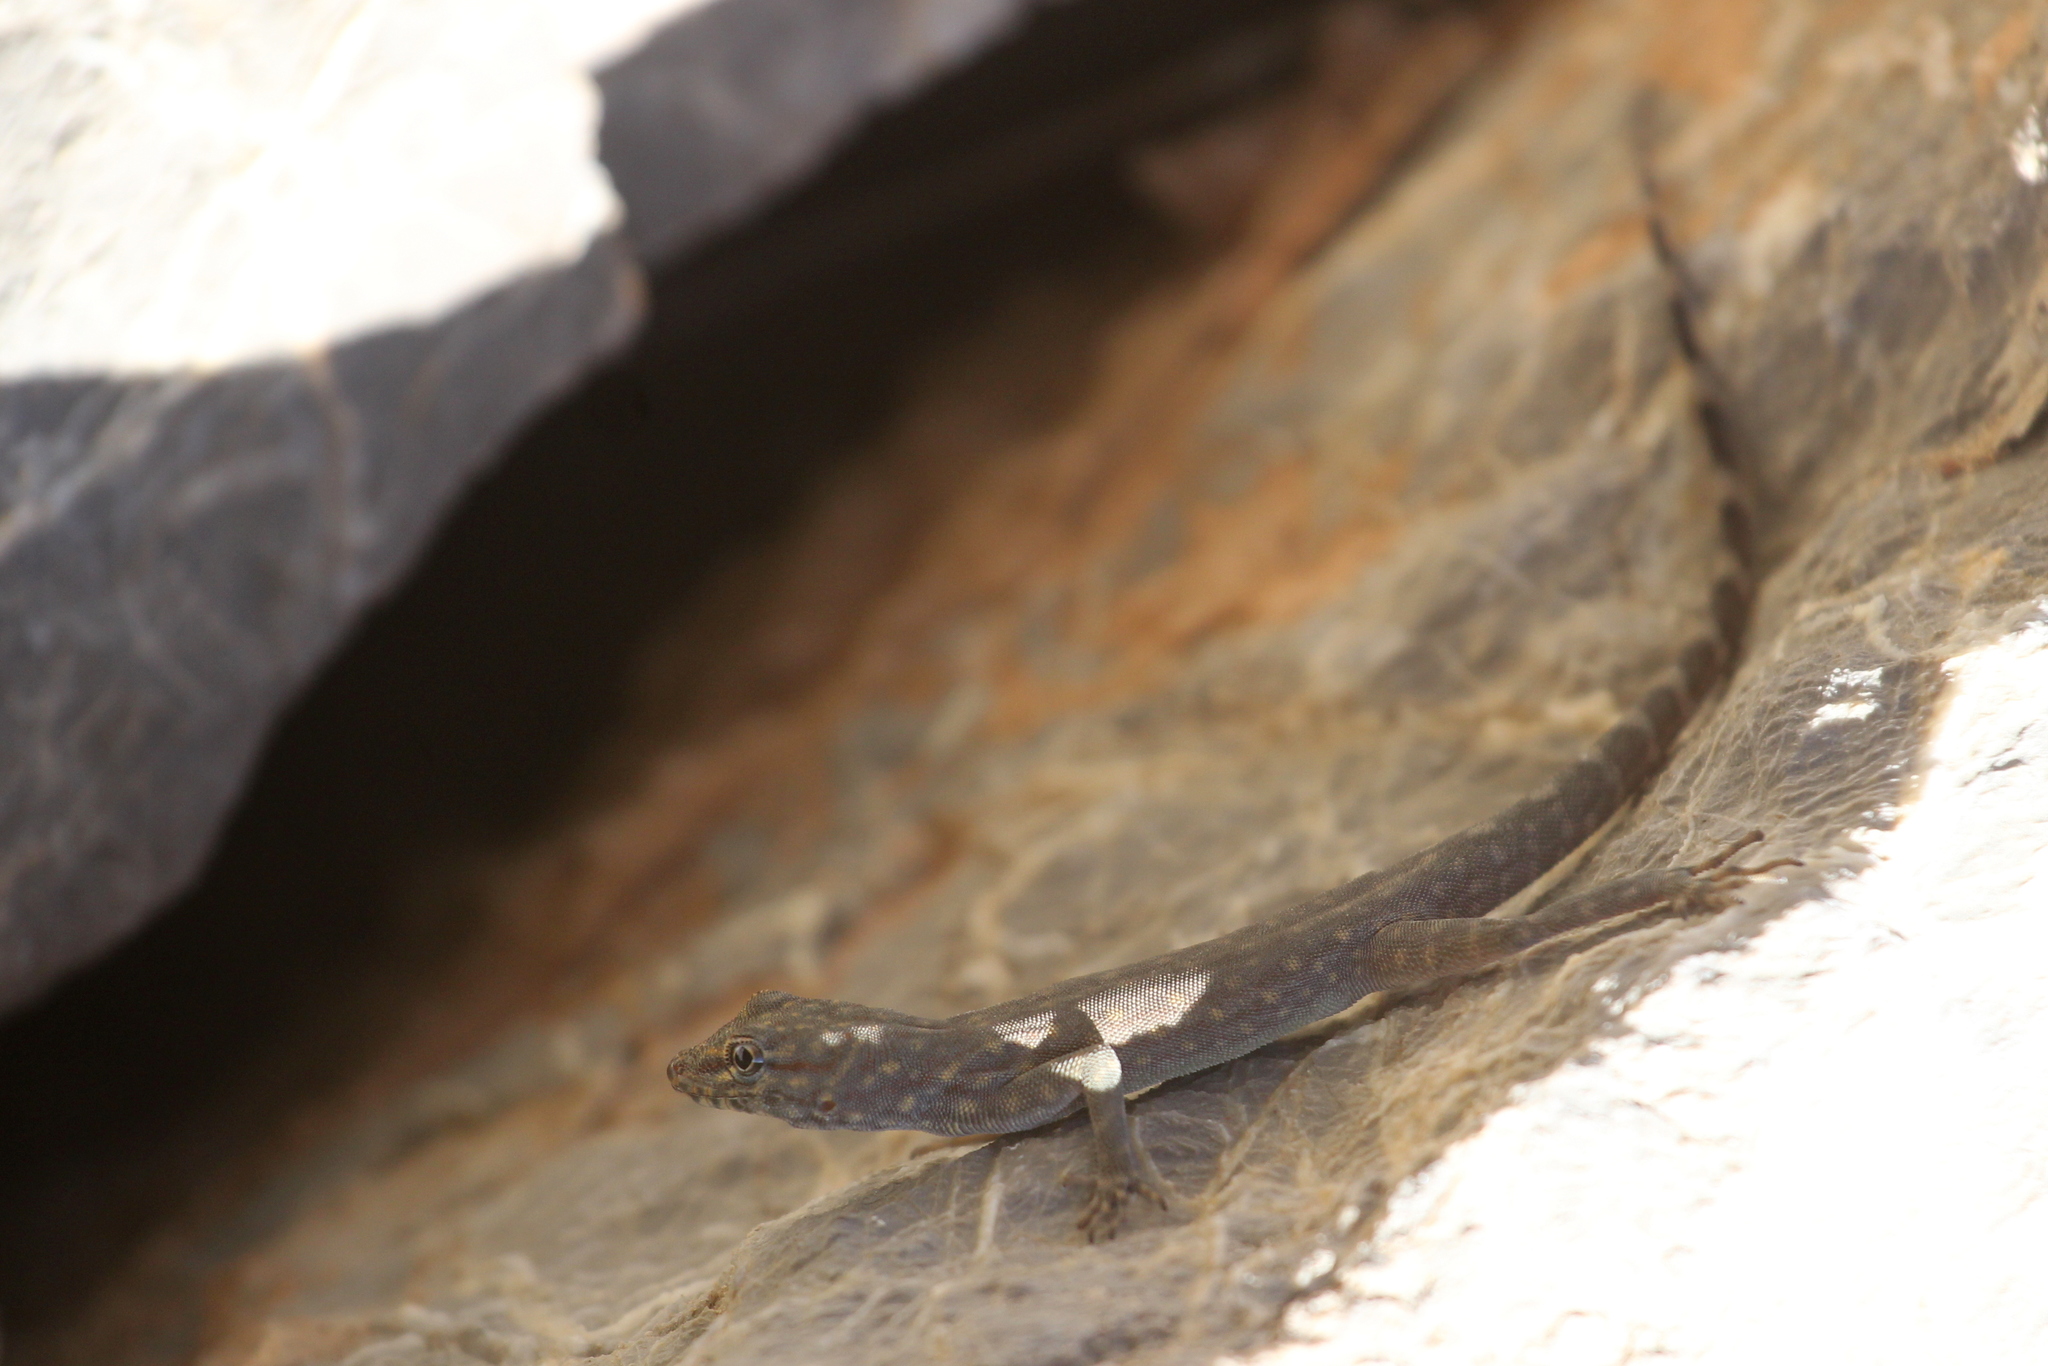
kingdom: Animalia
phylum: Chordata
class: Squamata
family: Sphaerodactylidae
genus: Pristurus
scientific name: Pristurus celerrimus
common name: Bar-tailed semaphore gecko
